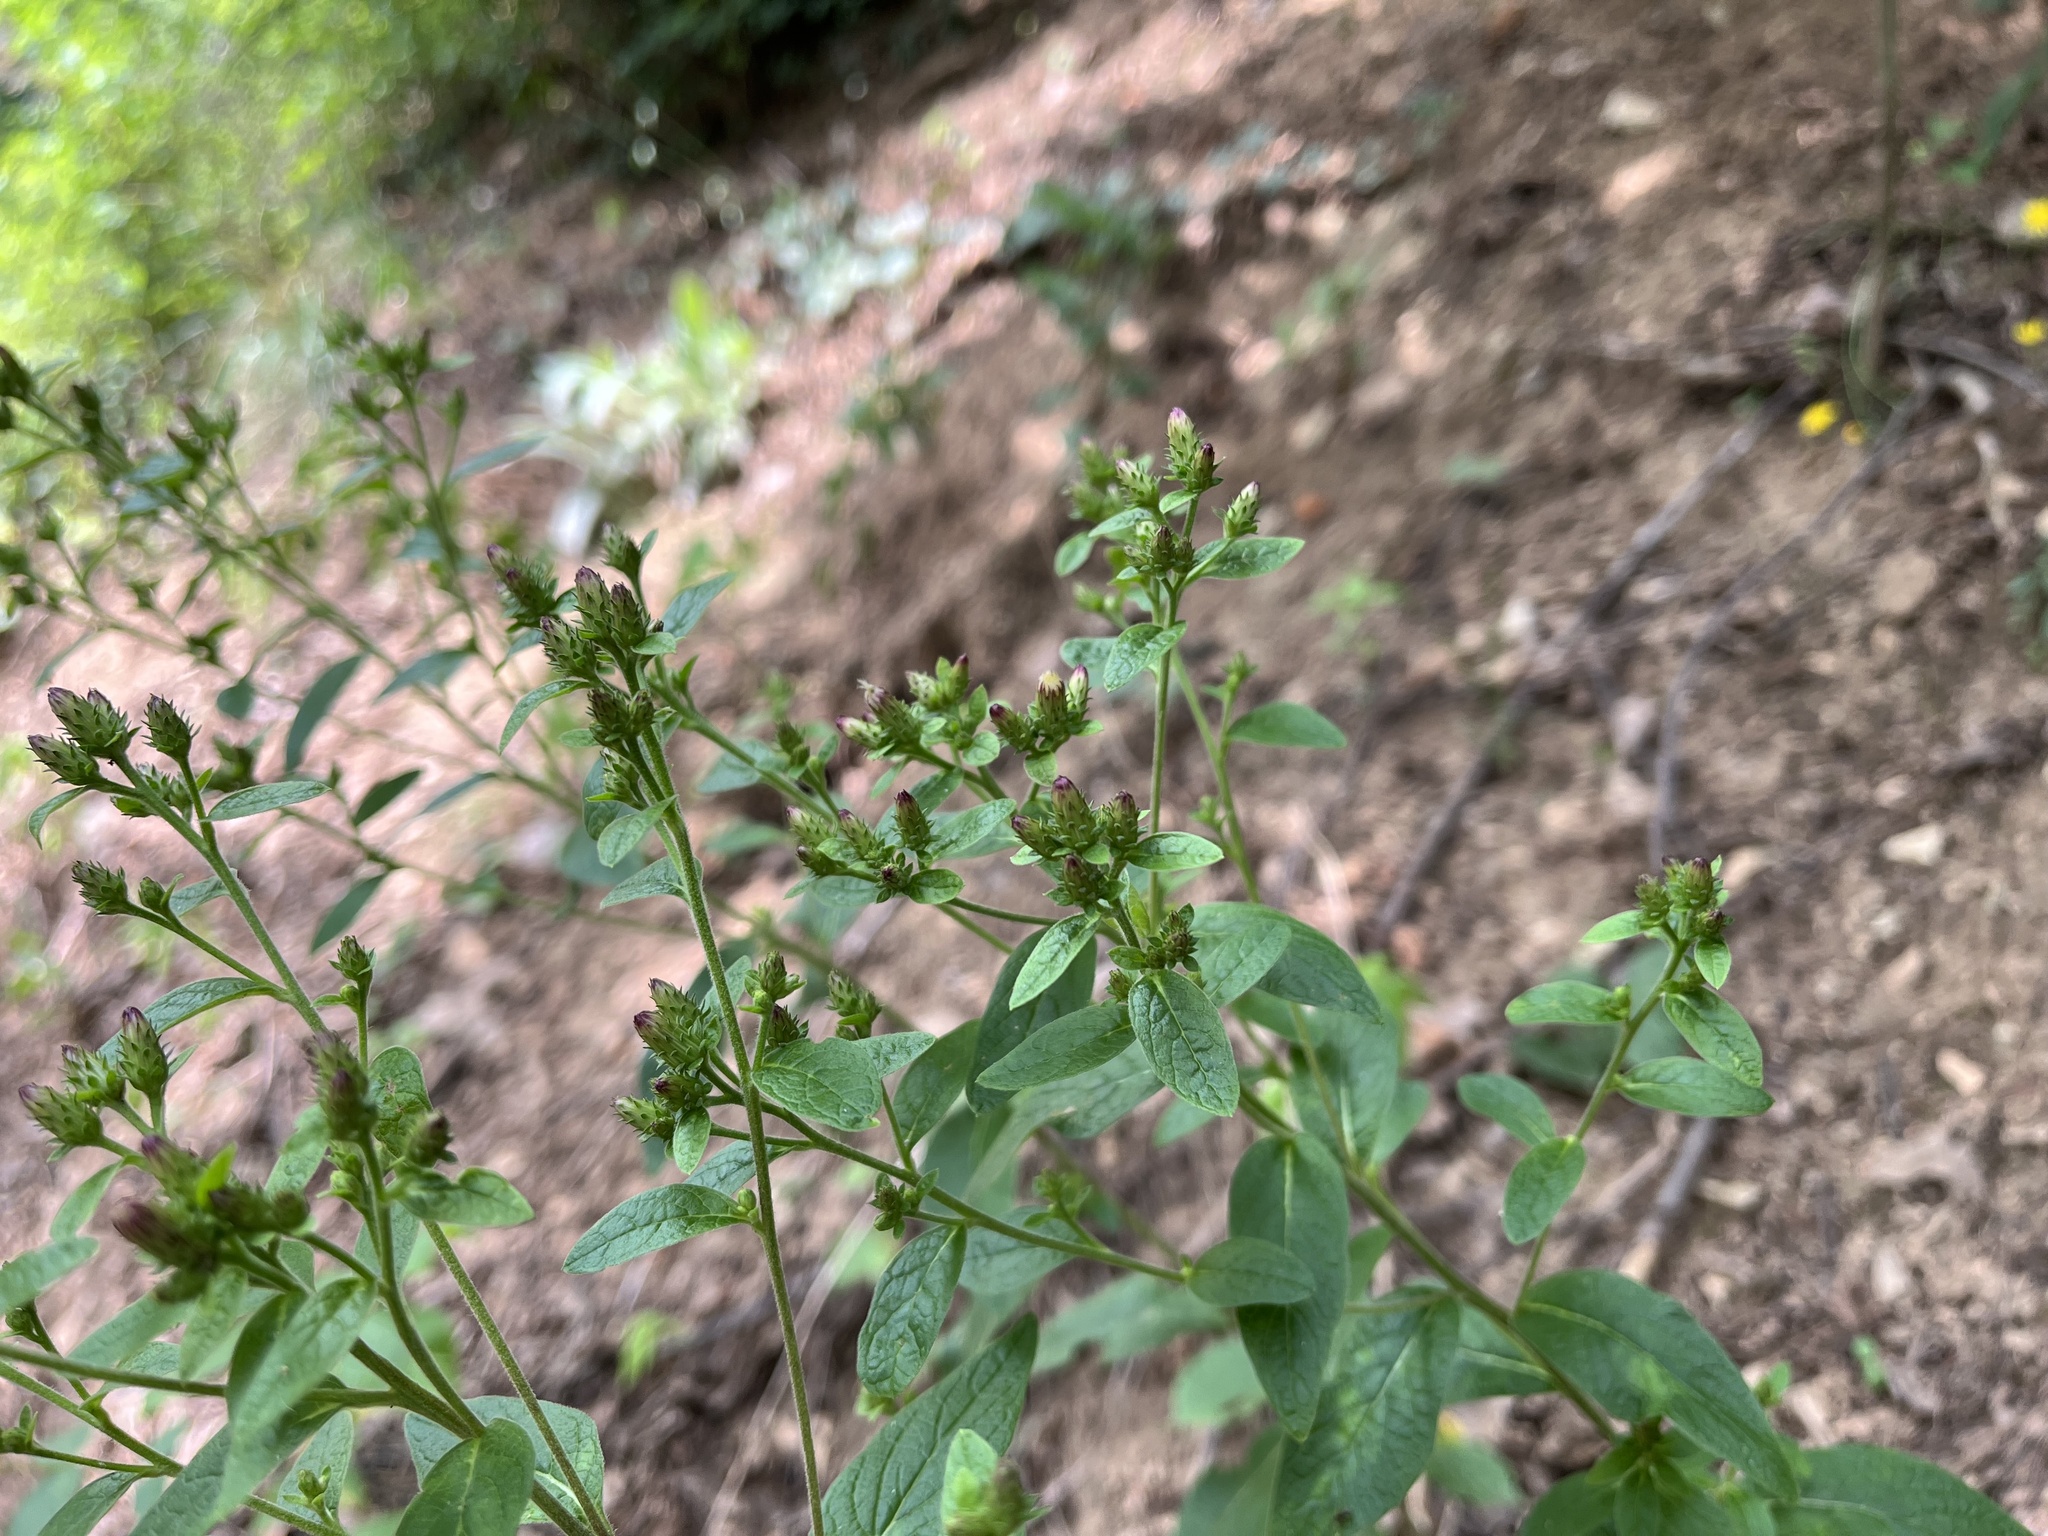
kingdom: Plantae
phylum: Tracheophyta
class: Magnoliopsida
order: Asterales
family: Asteraceae
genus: Pentanema
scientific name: Pentanema squarrosum
